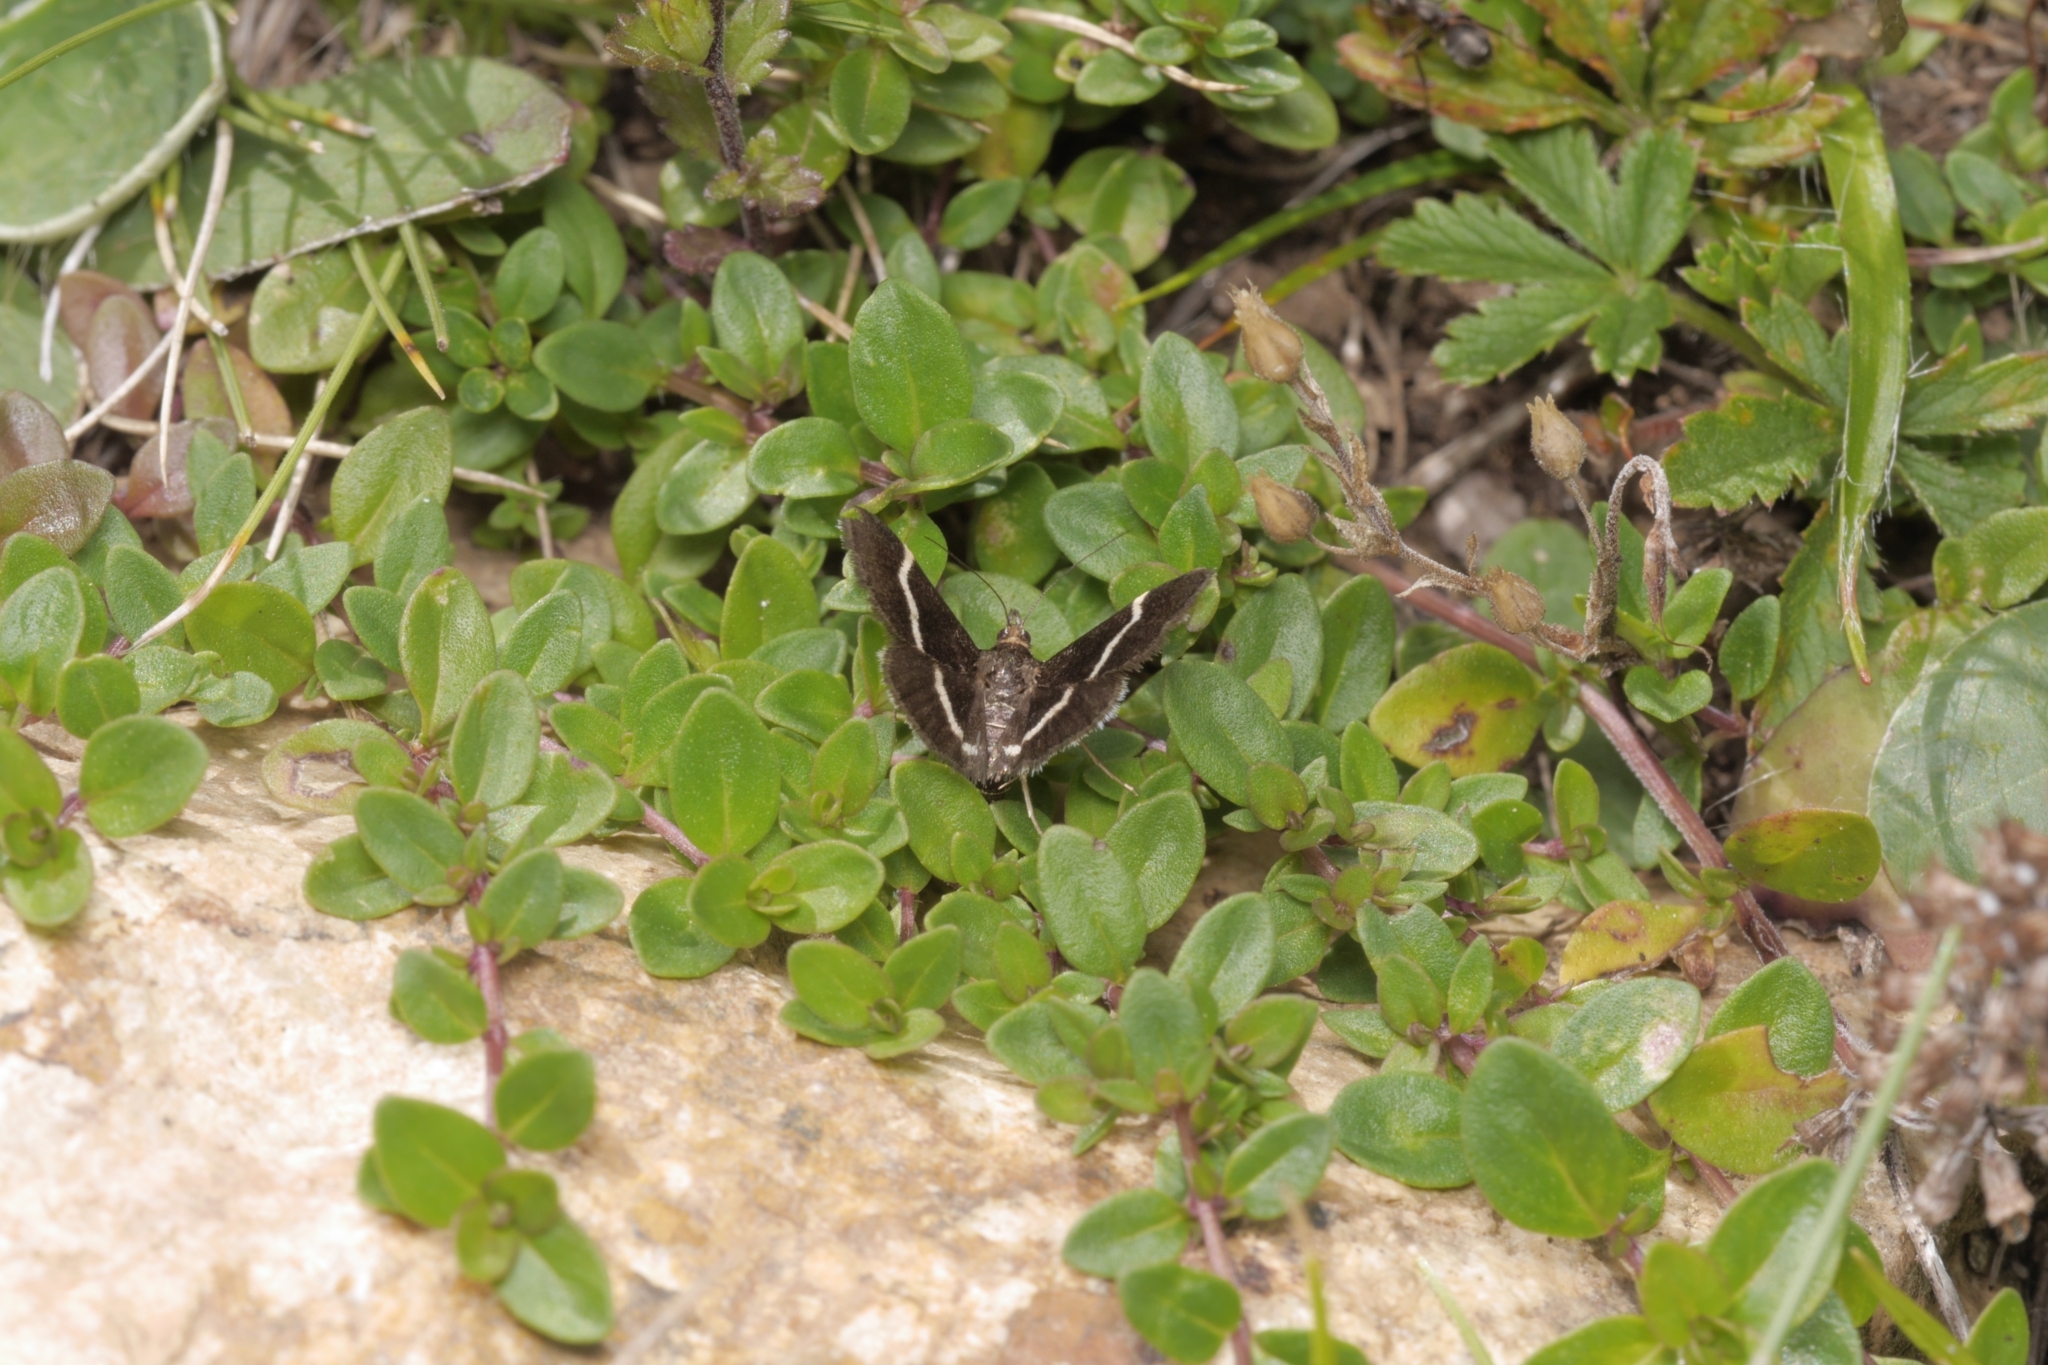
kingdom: Animalia
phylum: Arthropoda
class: Insecta
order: Lepidoptera
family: Crambidae
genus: Pyrausta
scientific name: Pyrausta cingulata
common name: Silver-barred sable
